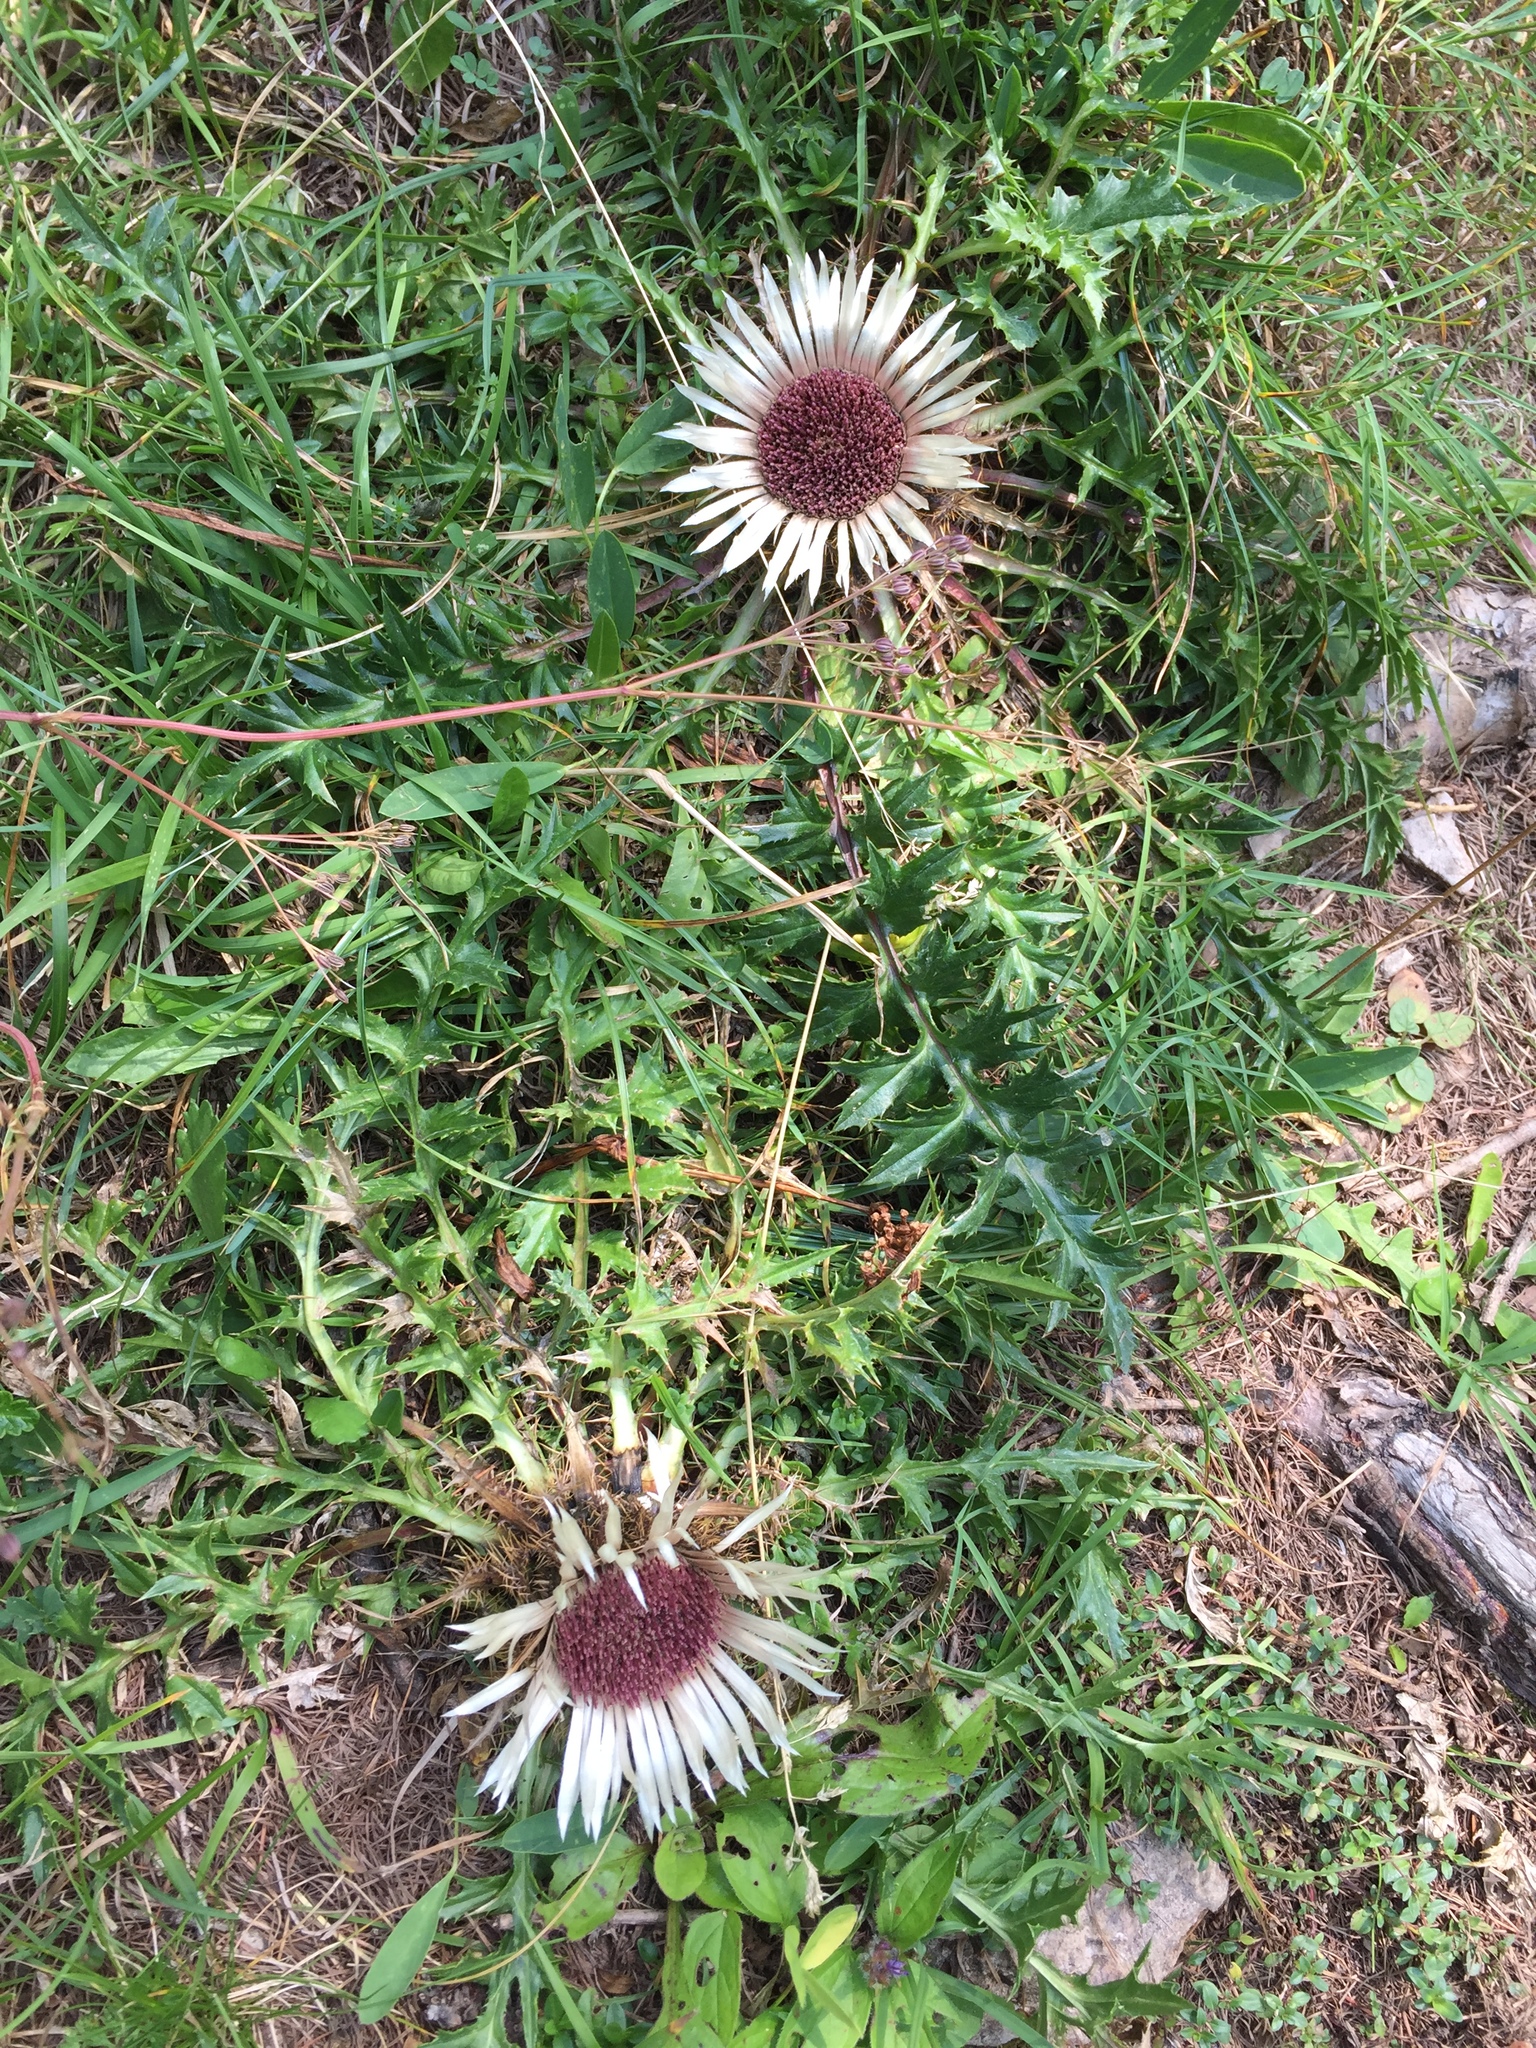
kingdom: Plantae
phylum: Tracheophyta
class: Magnoliopsida
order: Asterales
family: Asteraceae
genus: Carlina
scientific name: Carlina acaulis
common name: Stemless carline thistle
